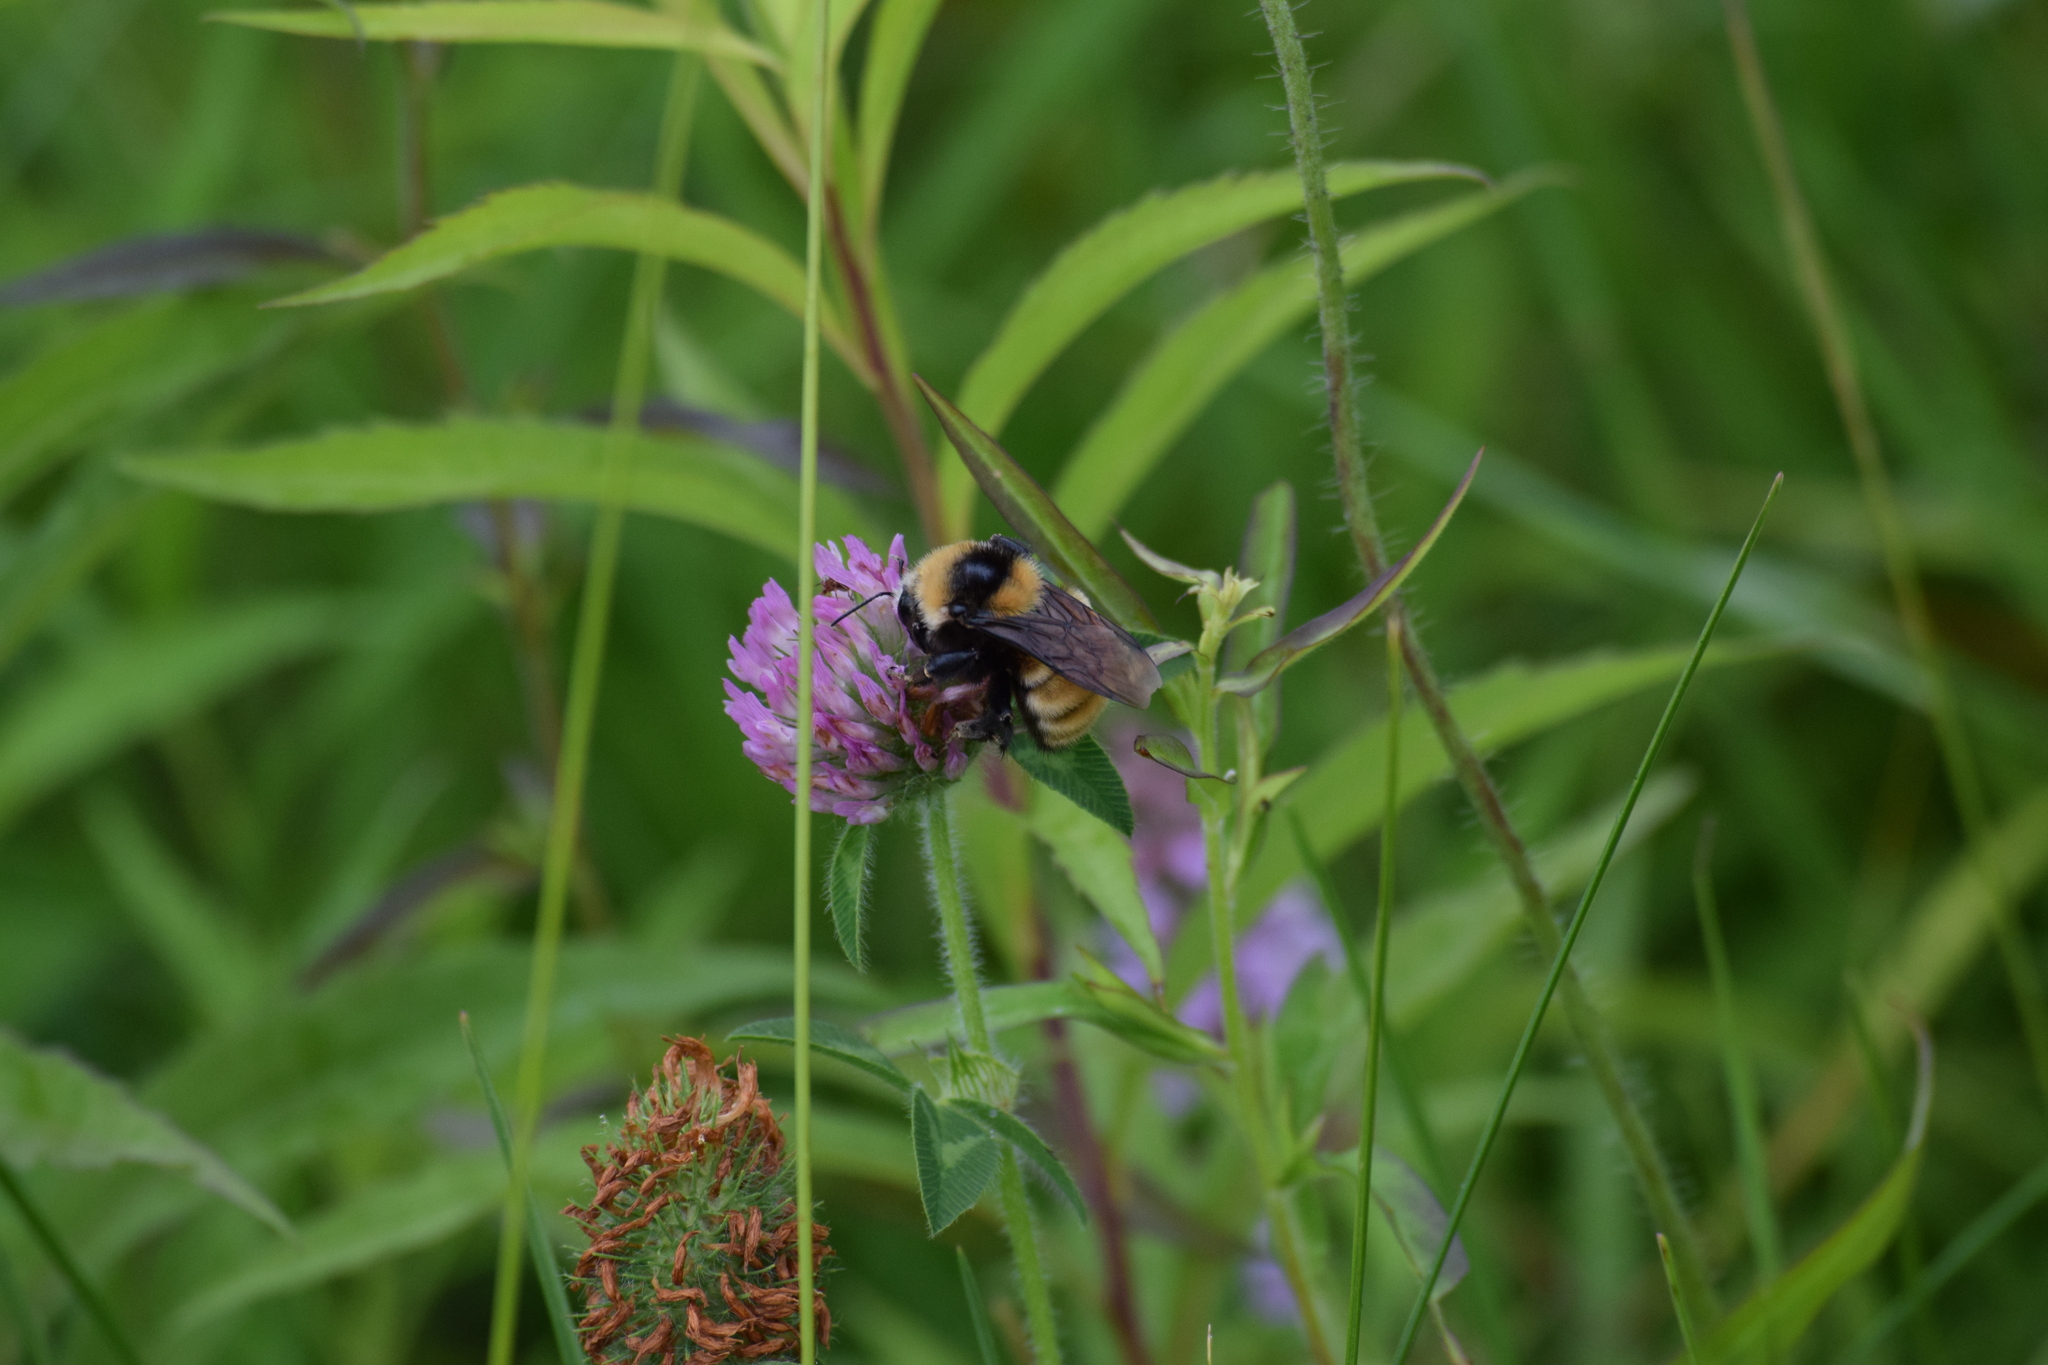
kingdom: Animalia
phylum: Arthropoda
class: Insecta
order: Hymenoptera
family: Apidae
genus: Bombus
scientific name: Bombus borealis
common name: Northern amber bumble bee
